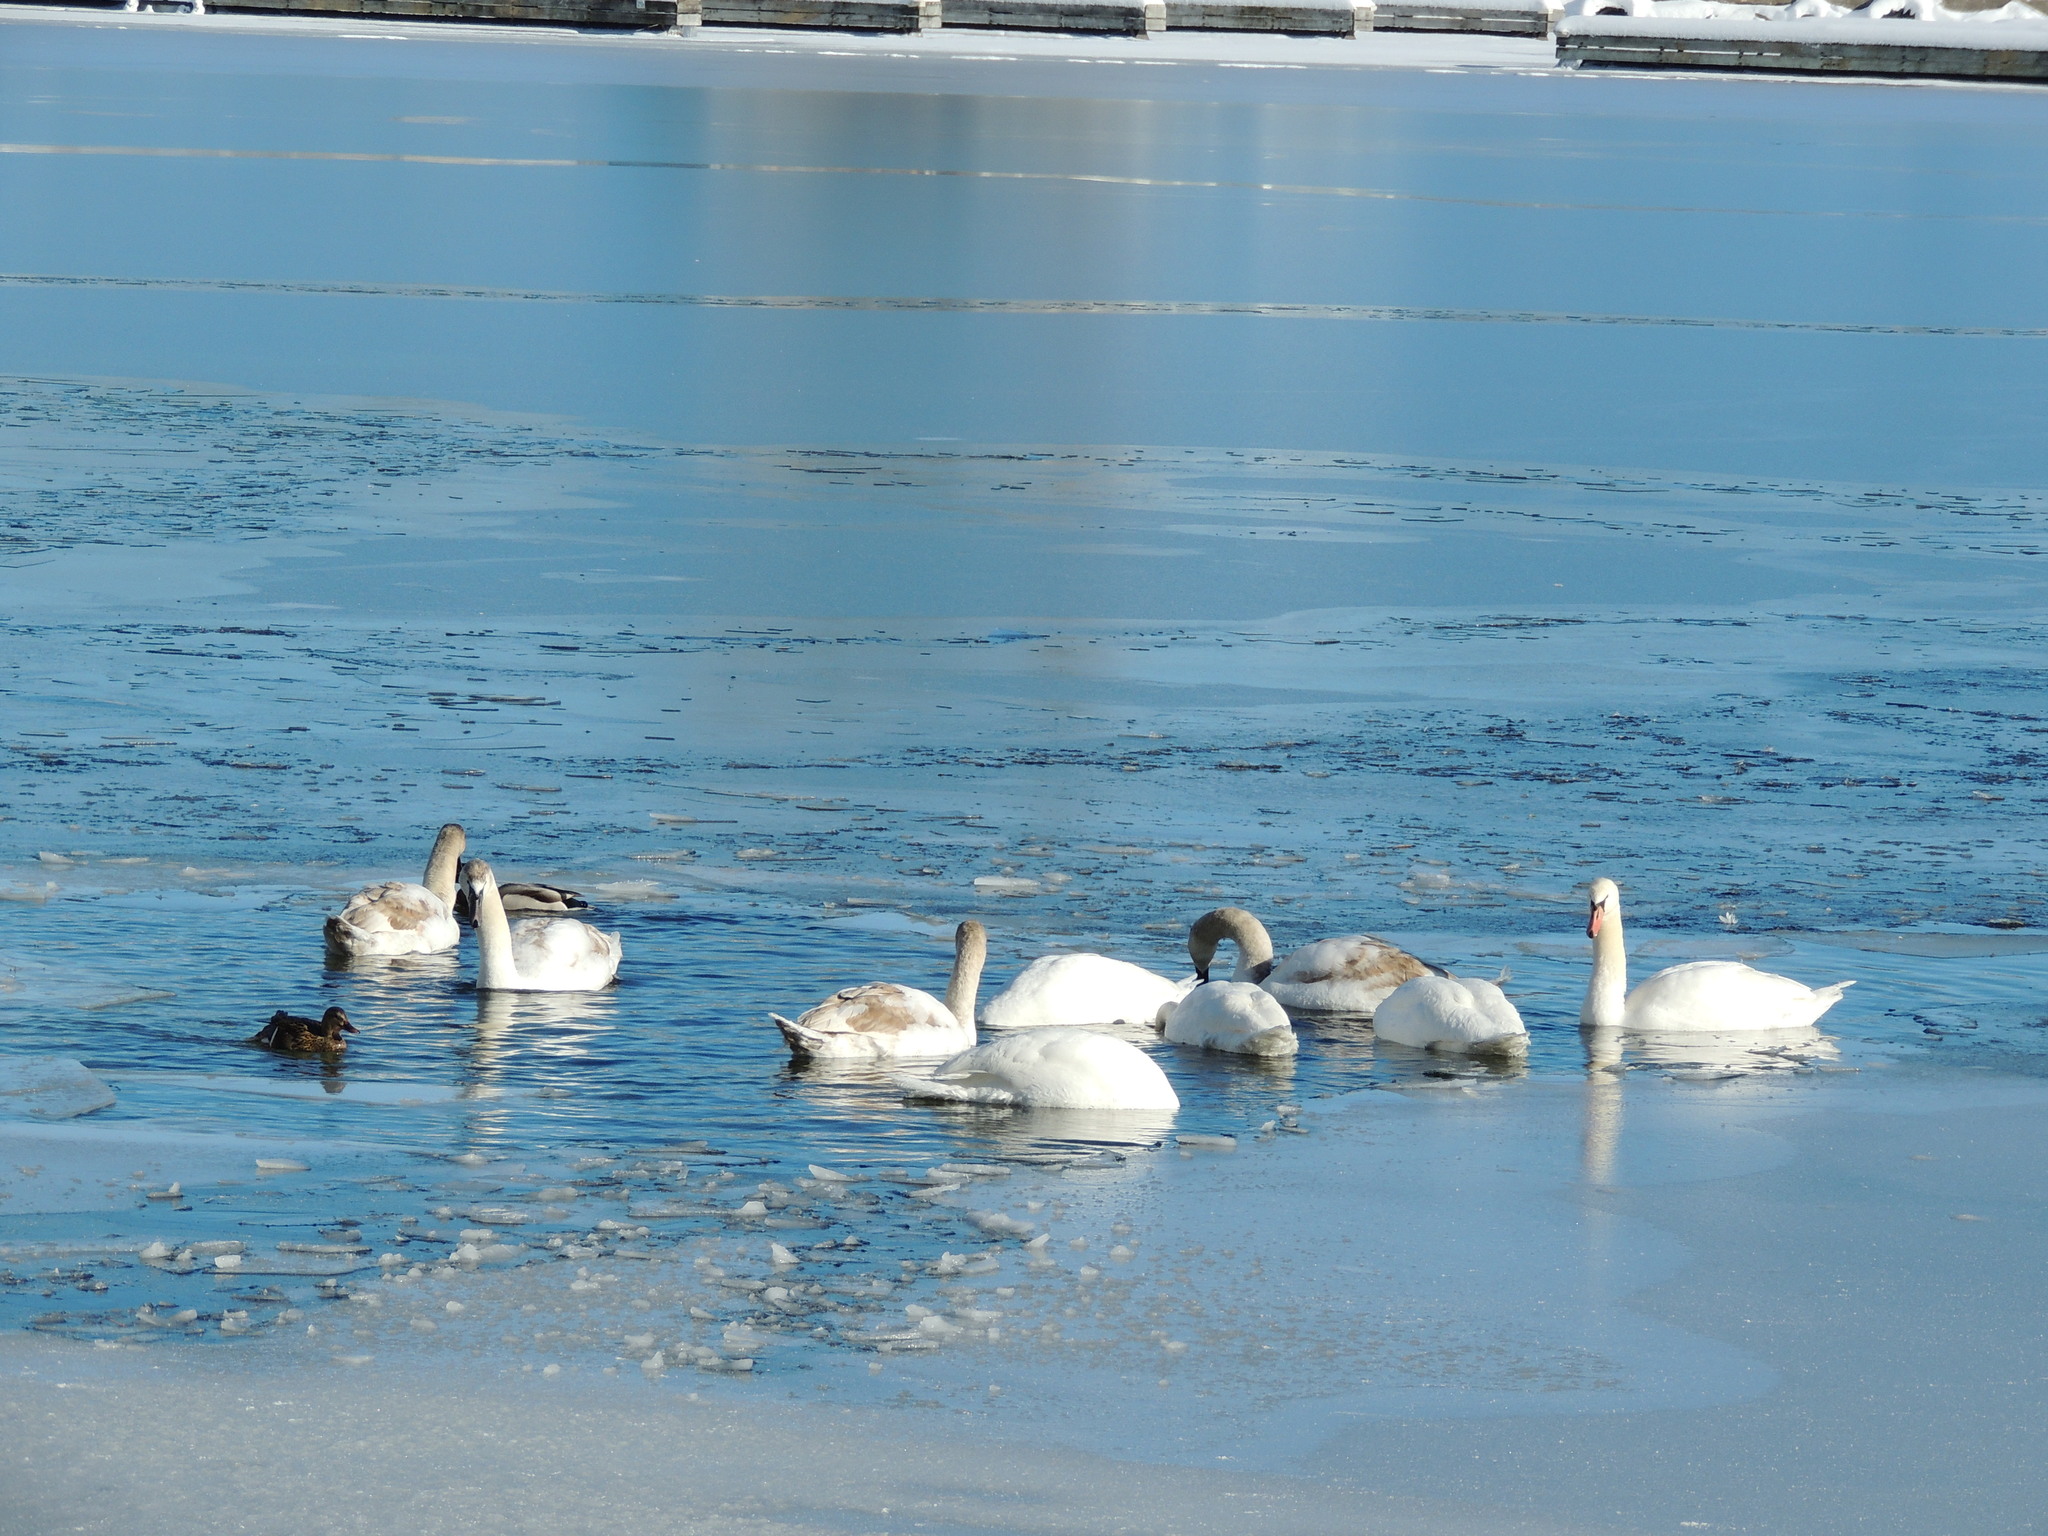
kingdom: Animalia
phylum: Chordata
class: Aves
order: Anseriformes
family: Anatidae
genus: Cygnus
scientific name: Cygnus olor
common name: Mute swan
